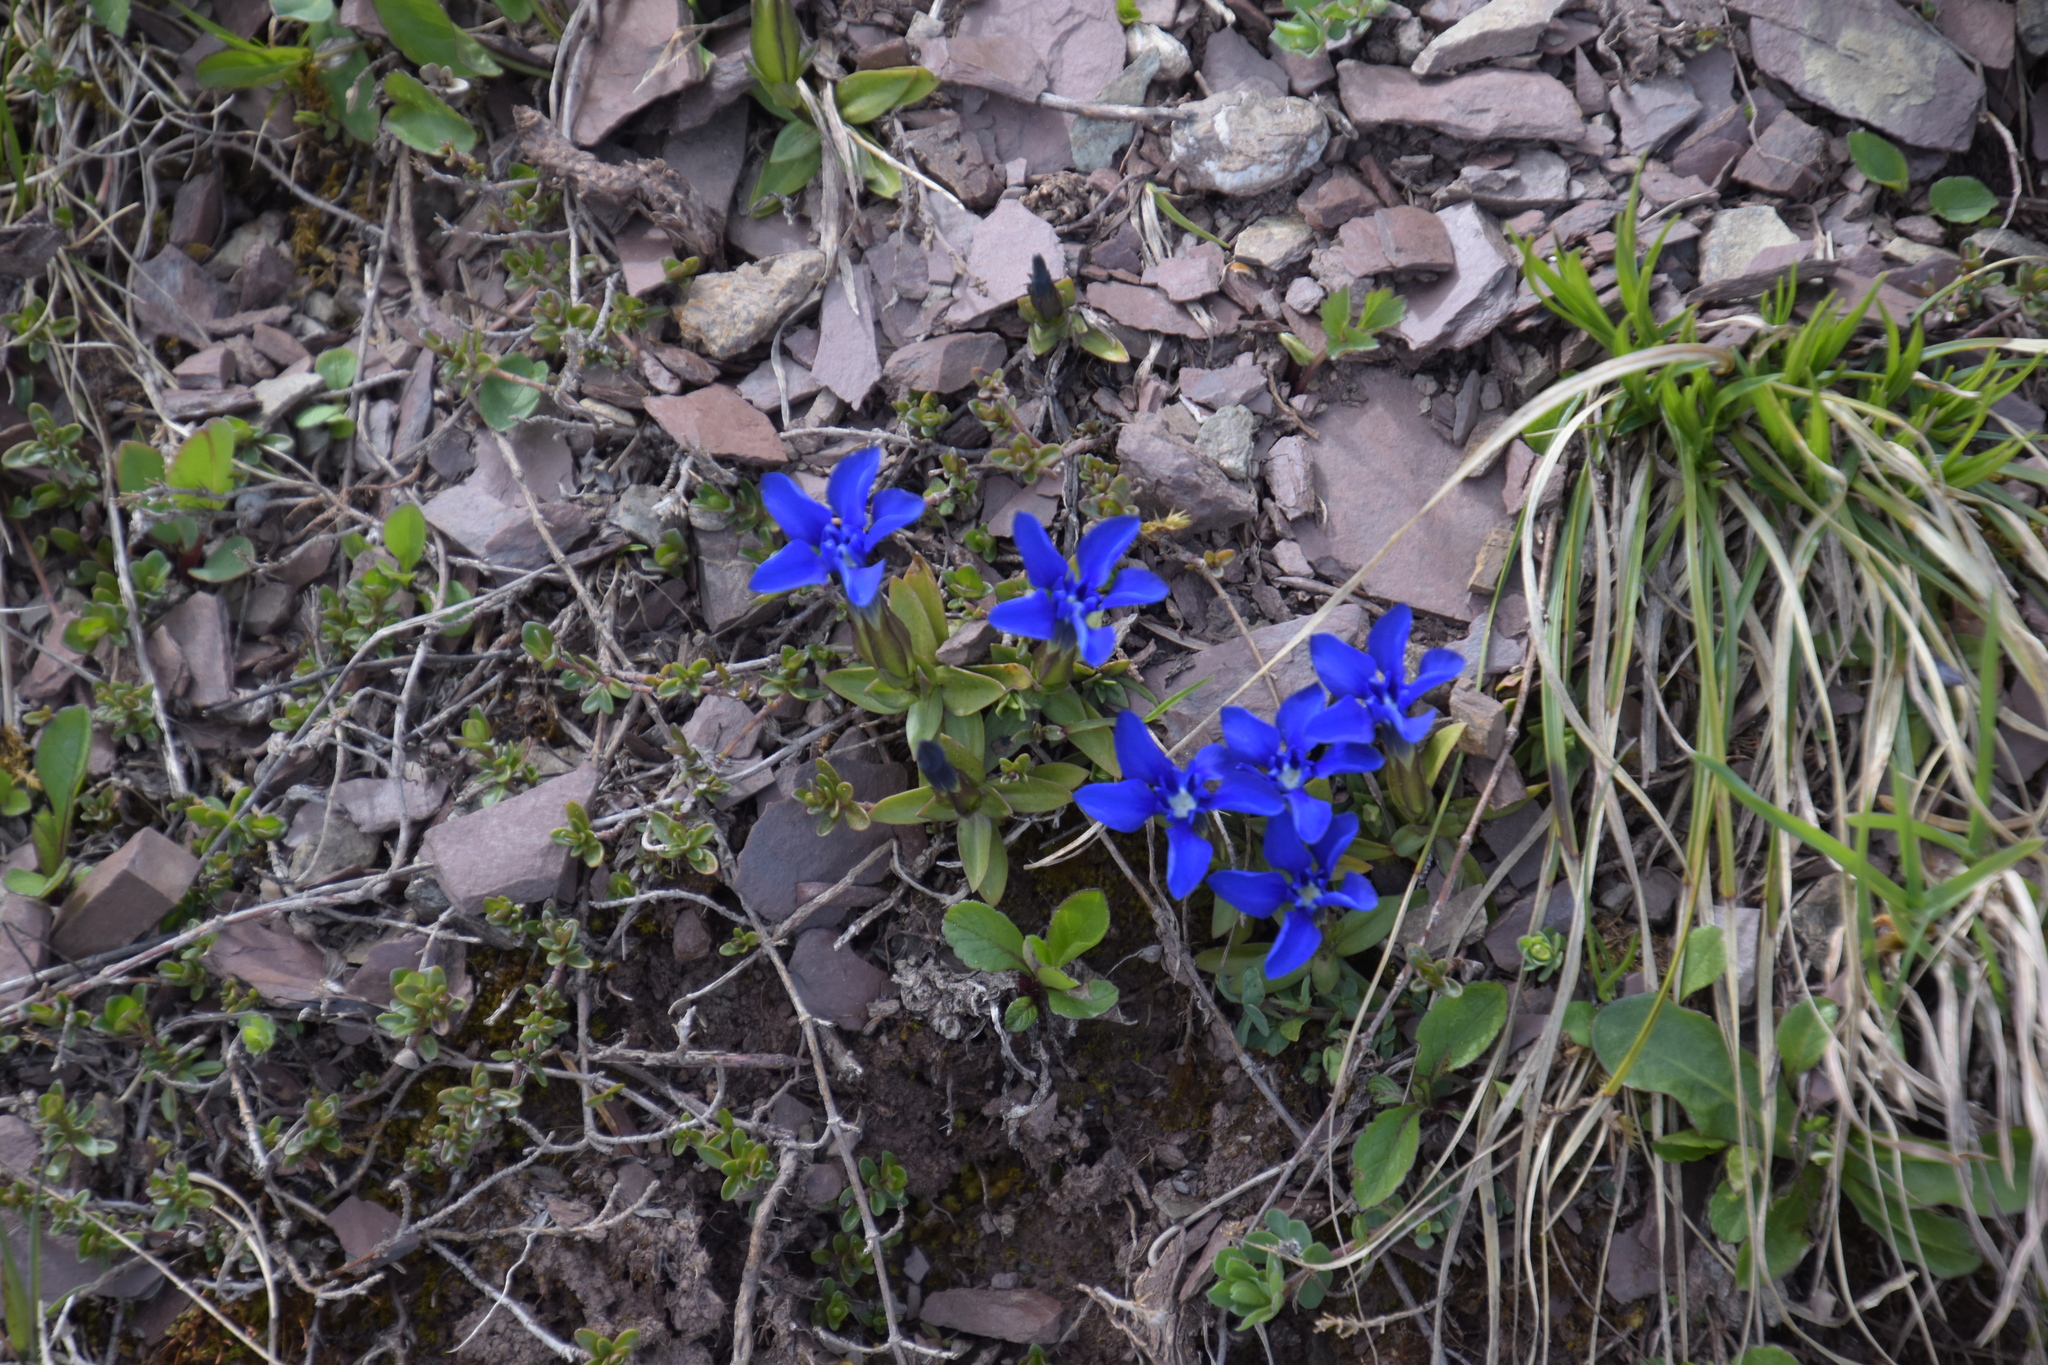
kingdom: Plantae
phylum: Tracheophyta
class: Magnoliopsida
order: Gentianales
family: Gentianaceae
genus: Gentiana
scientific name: Gentiana verna
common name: Spring gentian
